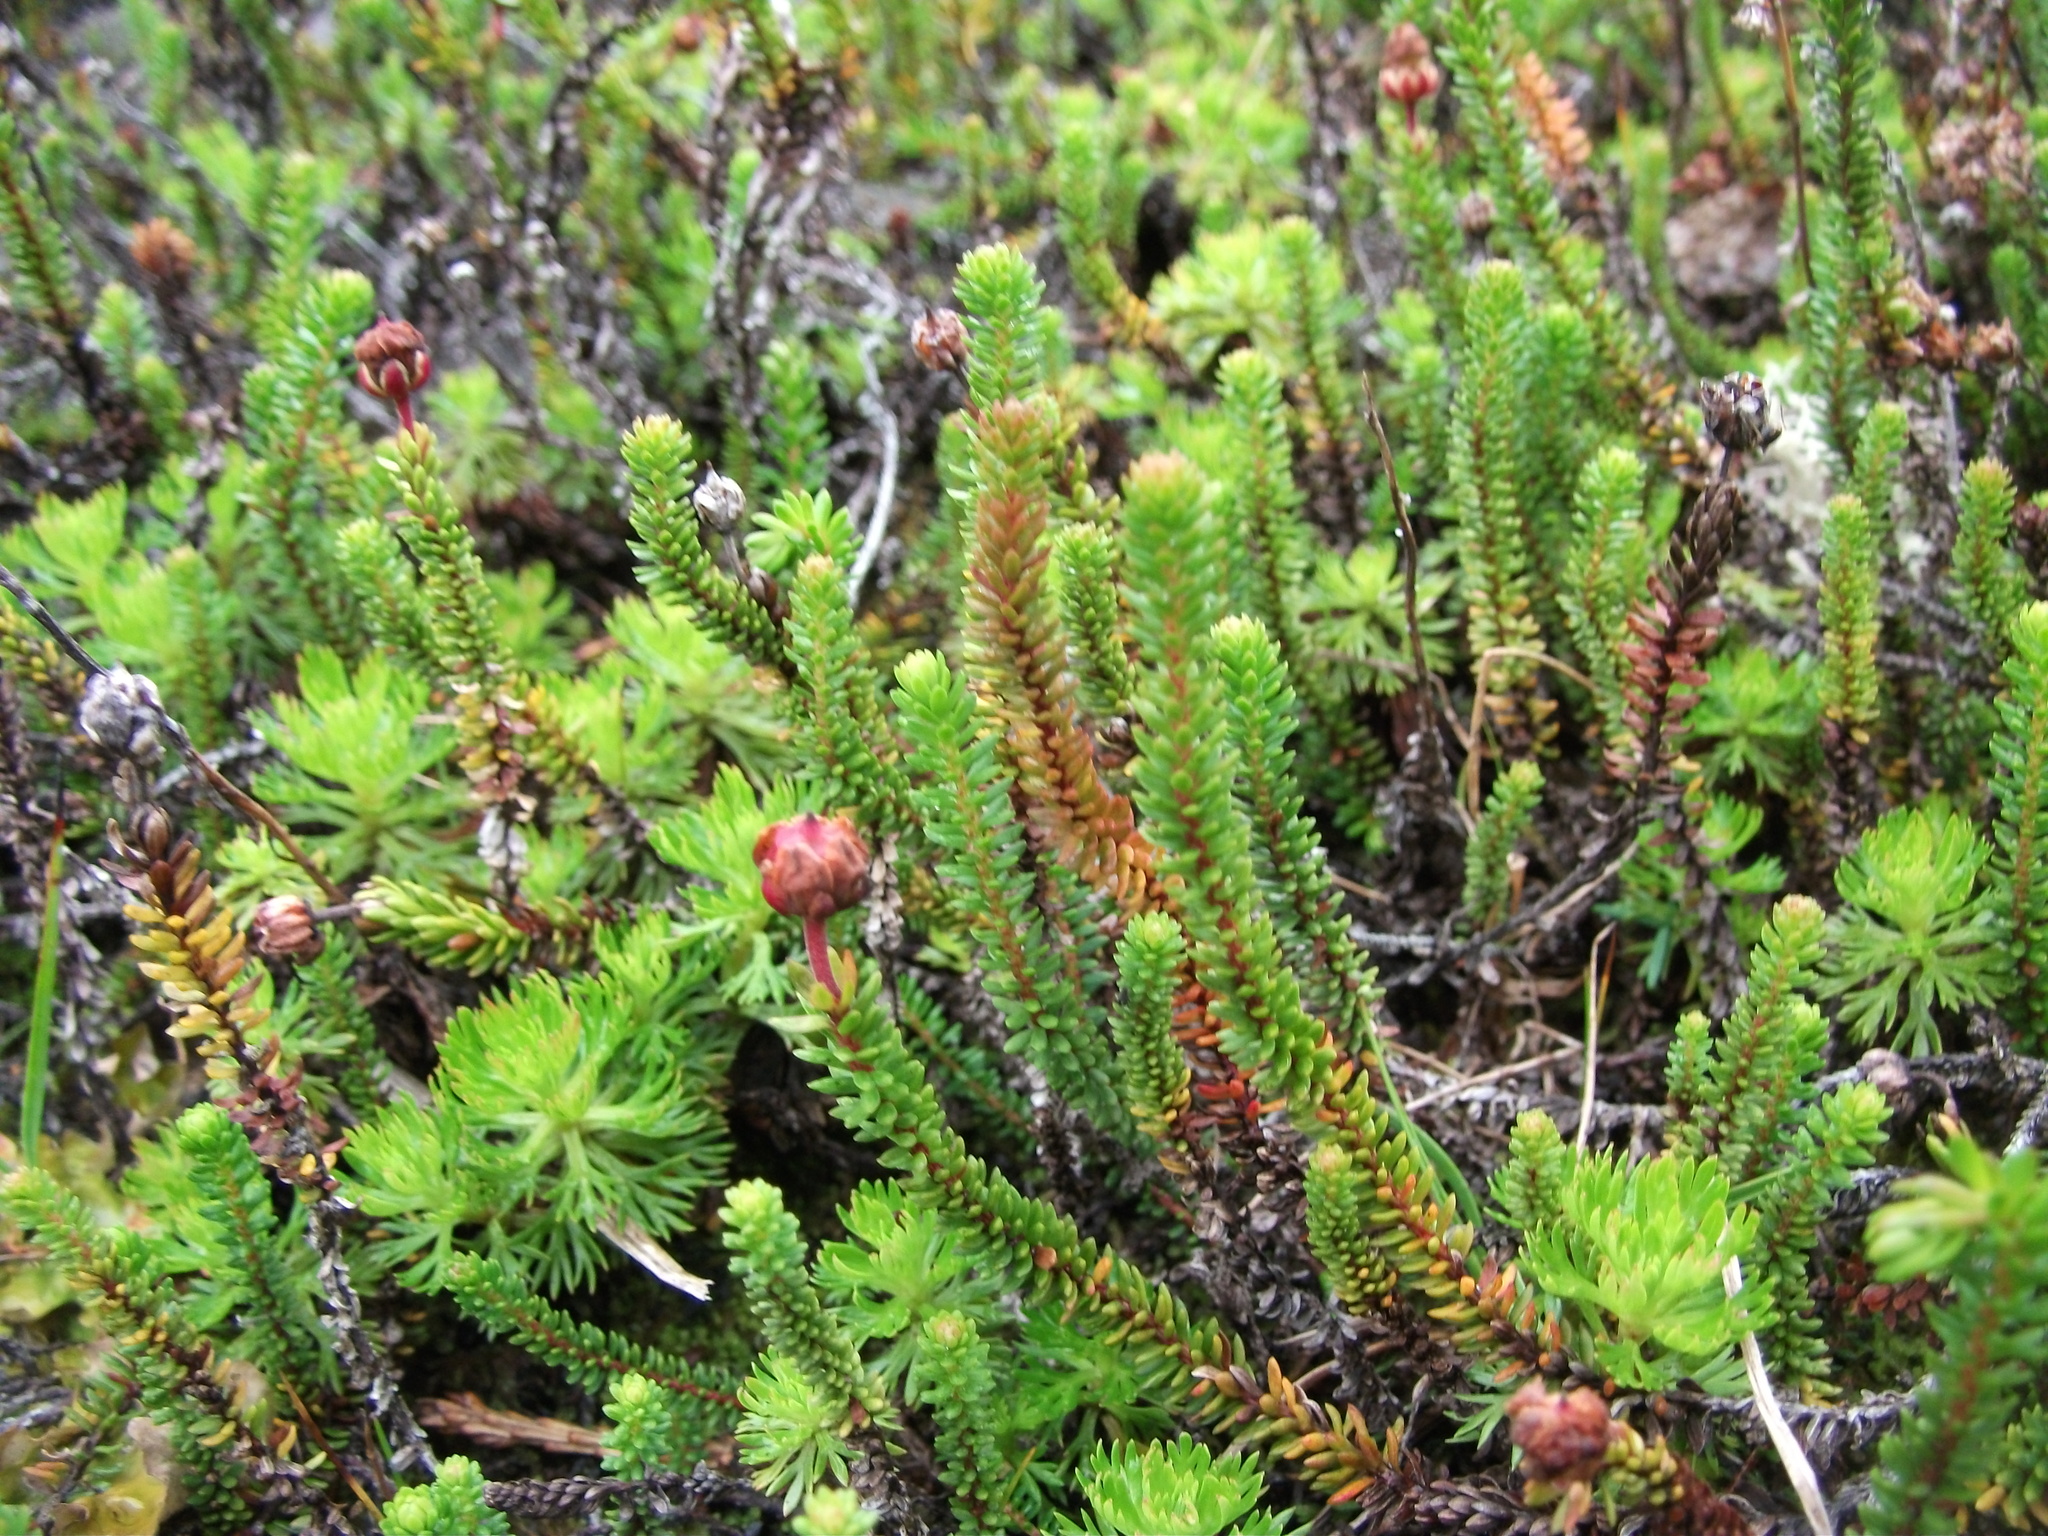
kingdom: Plantae
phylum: Tracheophyta
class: Magnoliopsida
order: Ericales
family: Ericaceae
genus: Harrimanella
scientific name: Harrimanella stelleriana
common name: Alaska bell heather
